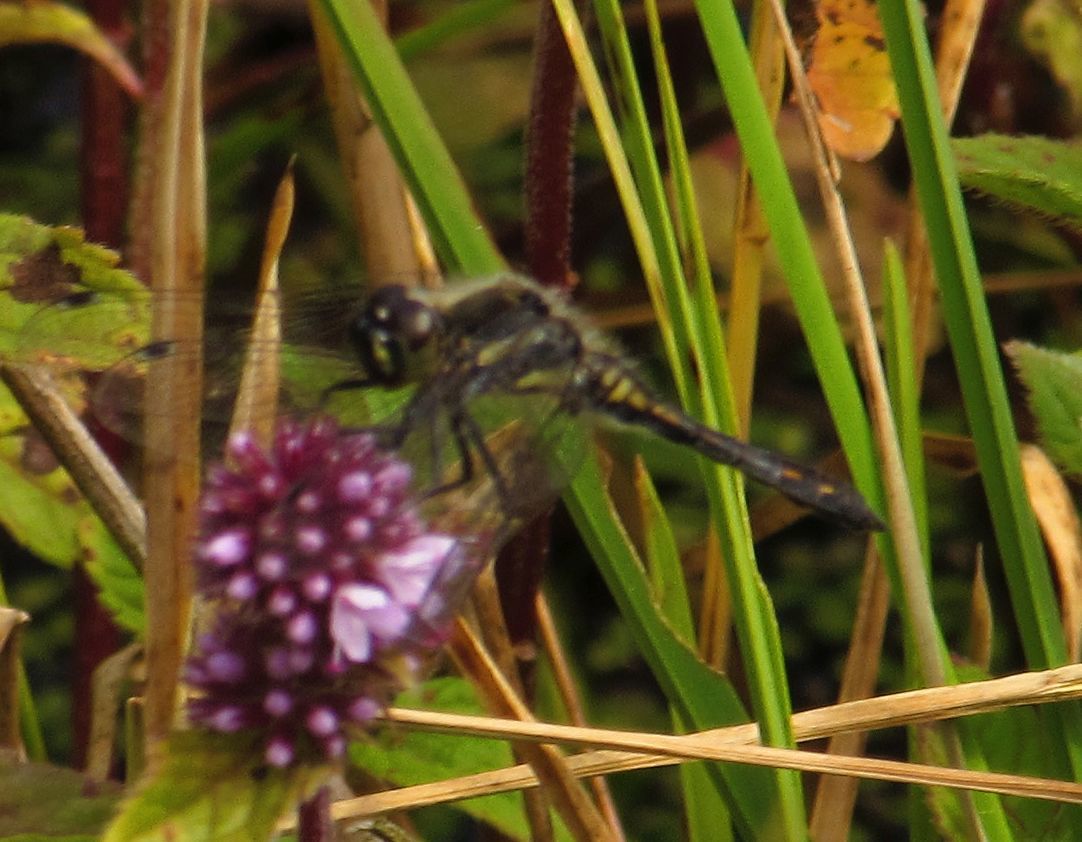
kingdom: Animalia
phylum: Arthropoda
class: Insecta
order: Odonata
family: Libellulidae
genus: Sympetrum
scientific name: Sympetrum danae
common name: Black darter
